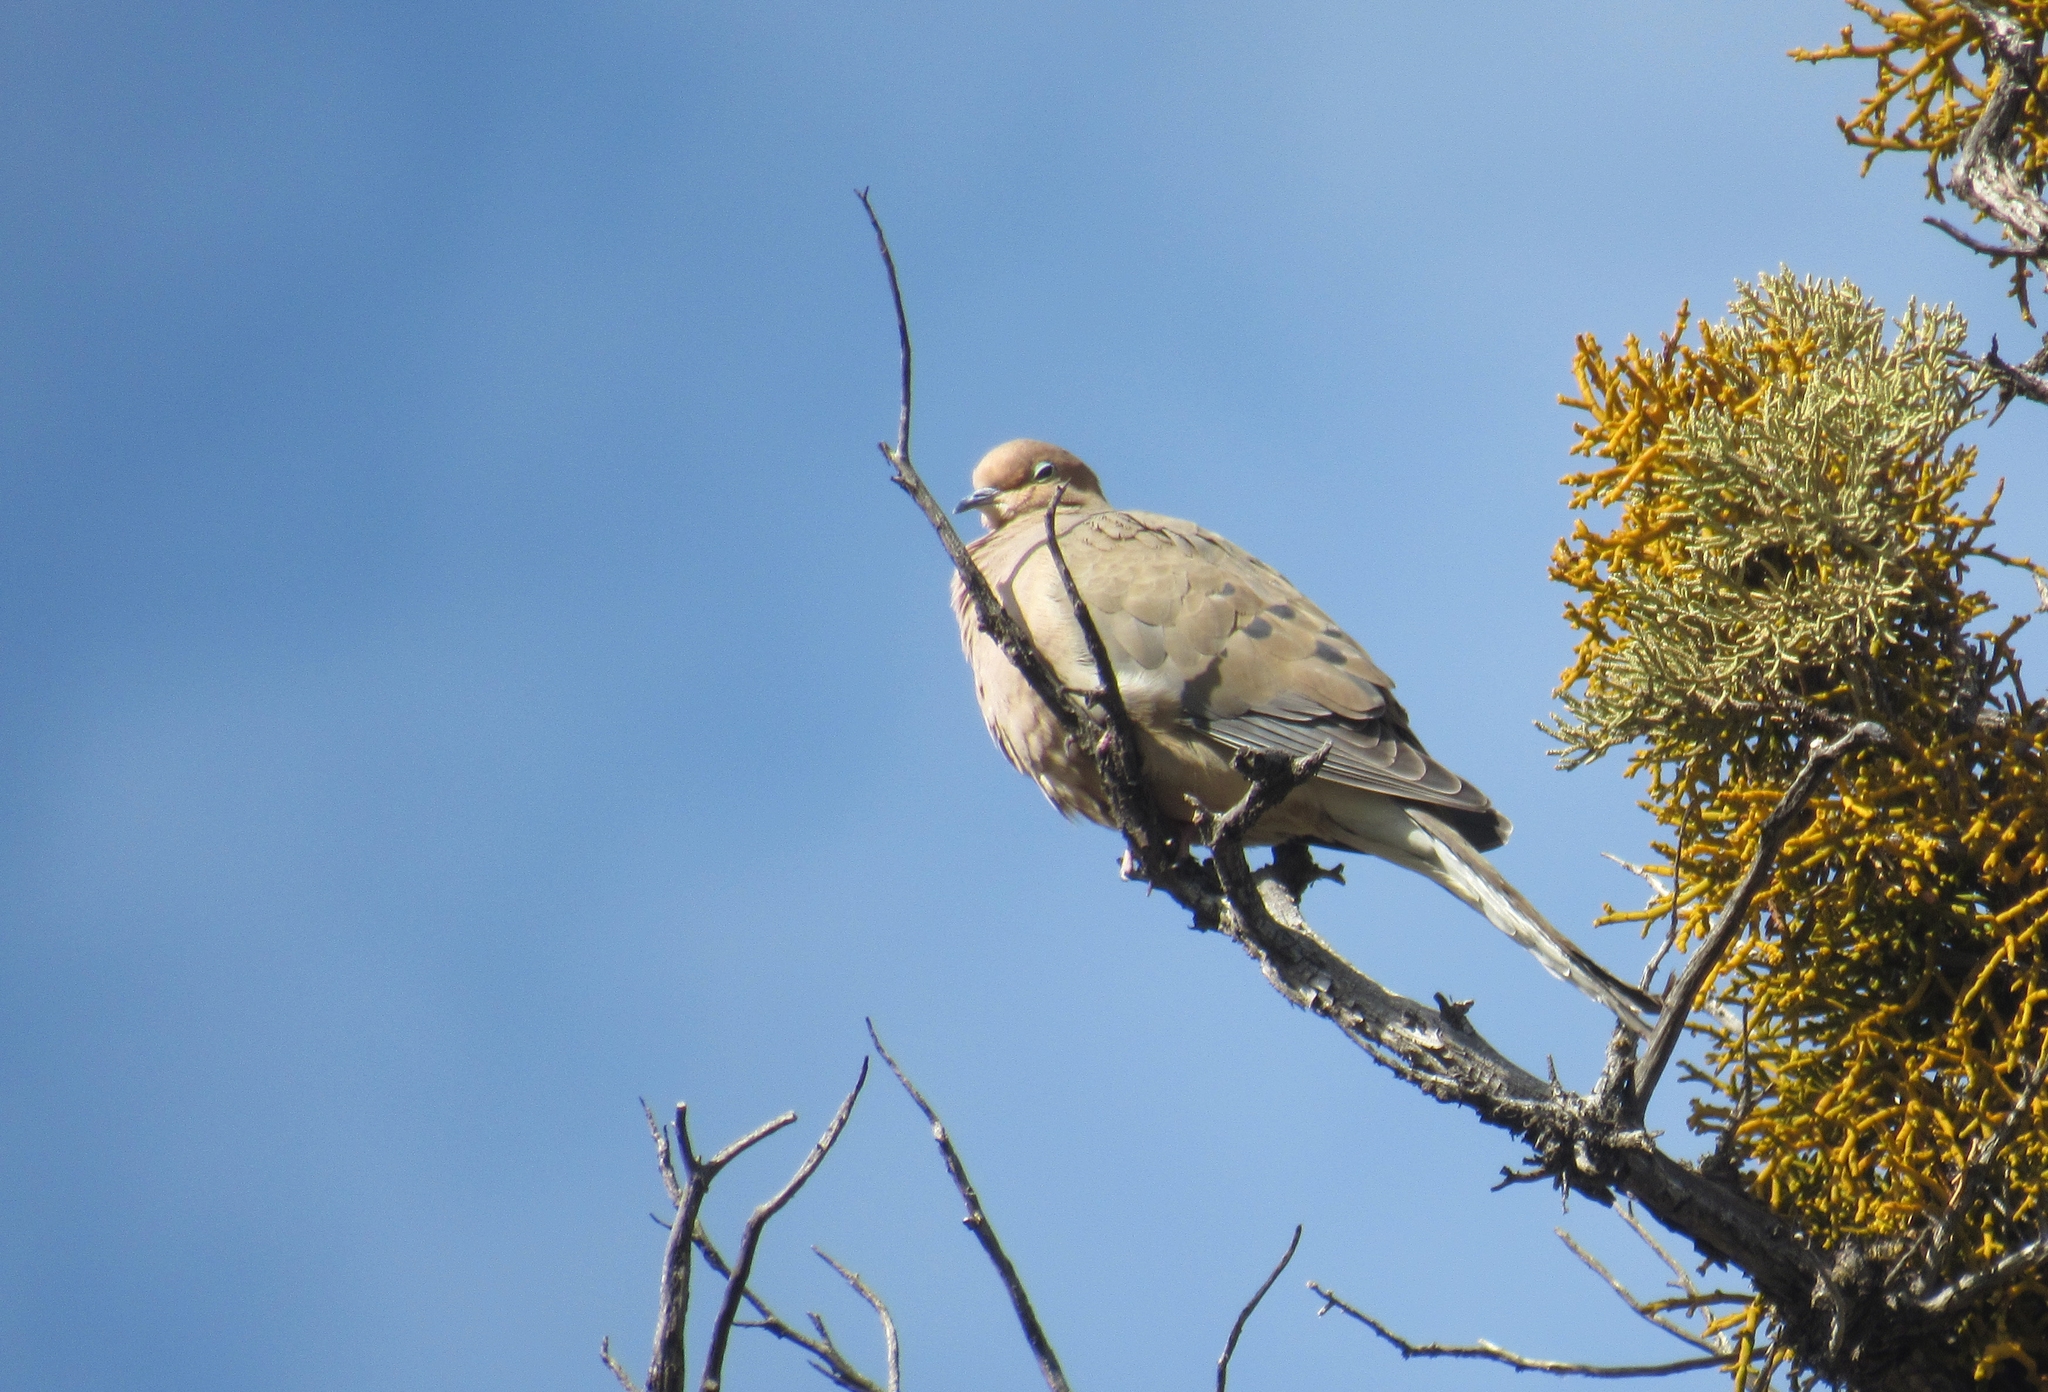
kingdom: Animalia
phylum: Chordata
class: Aves
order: Columbiformes
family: Columbidae
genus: Zenaida
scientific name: Zenaida macroura
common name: Mourning dove
